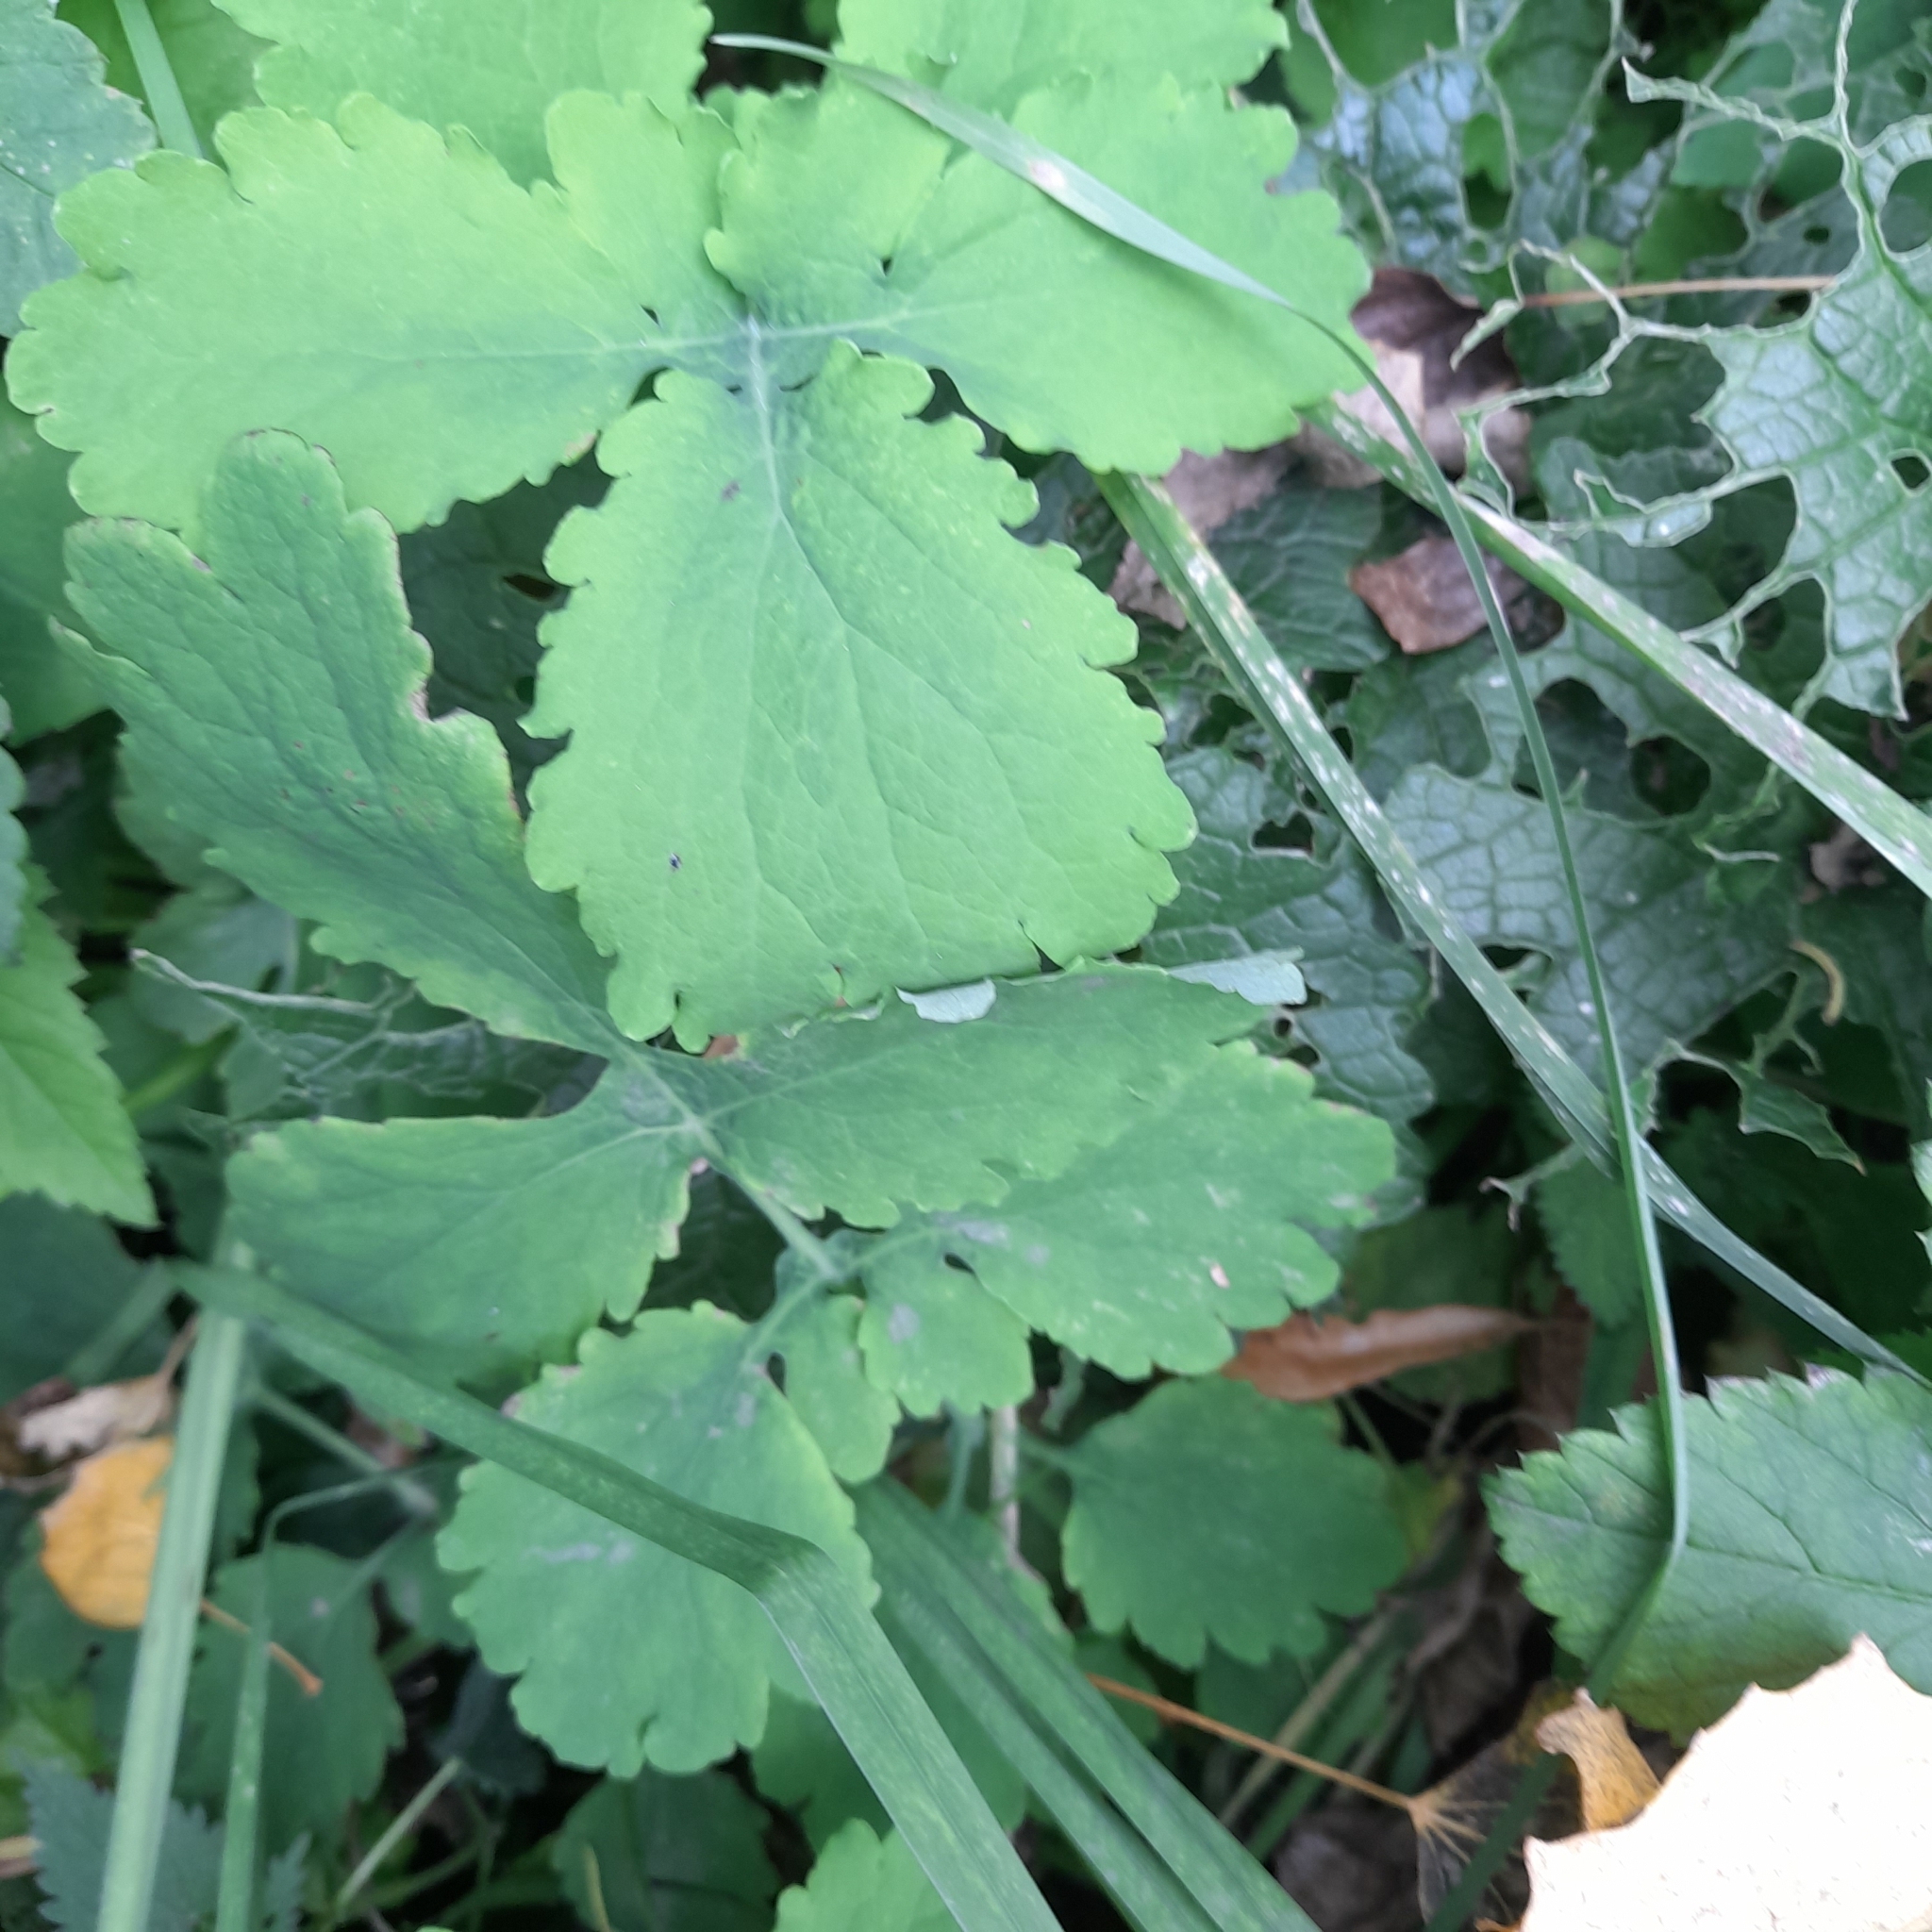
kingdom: Plantae
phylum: Tracheophyta
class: Magnoliopsida
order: Ranunculales
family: Papaveraceae
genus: Chelidonium
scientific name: Chelidonium majus
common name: Greater celandine
